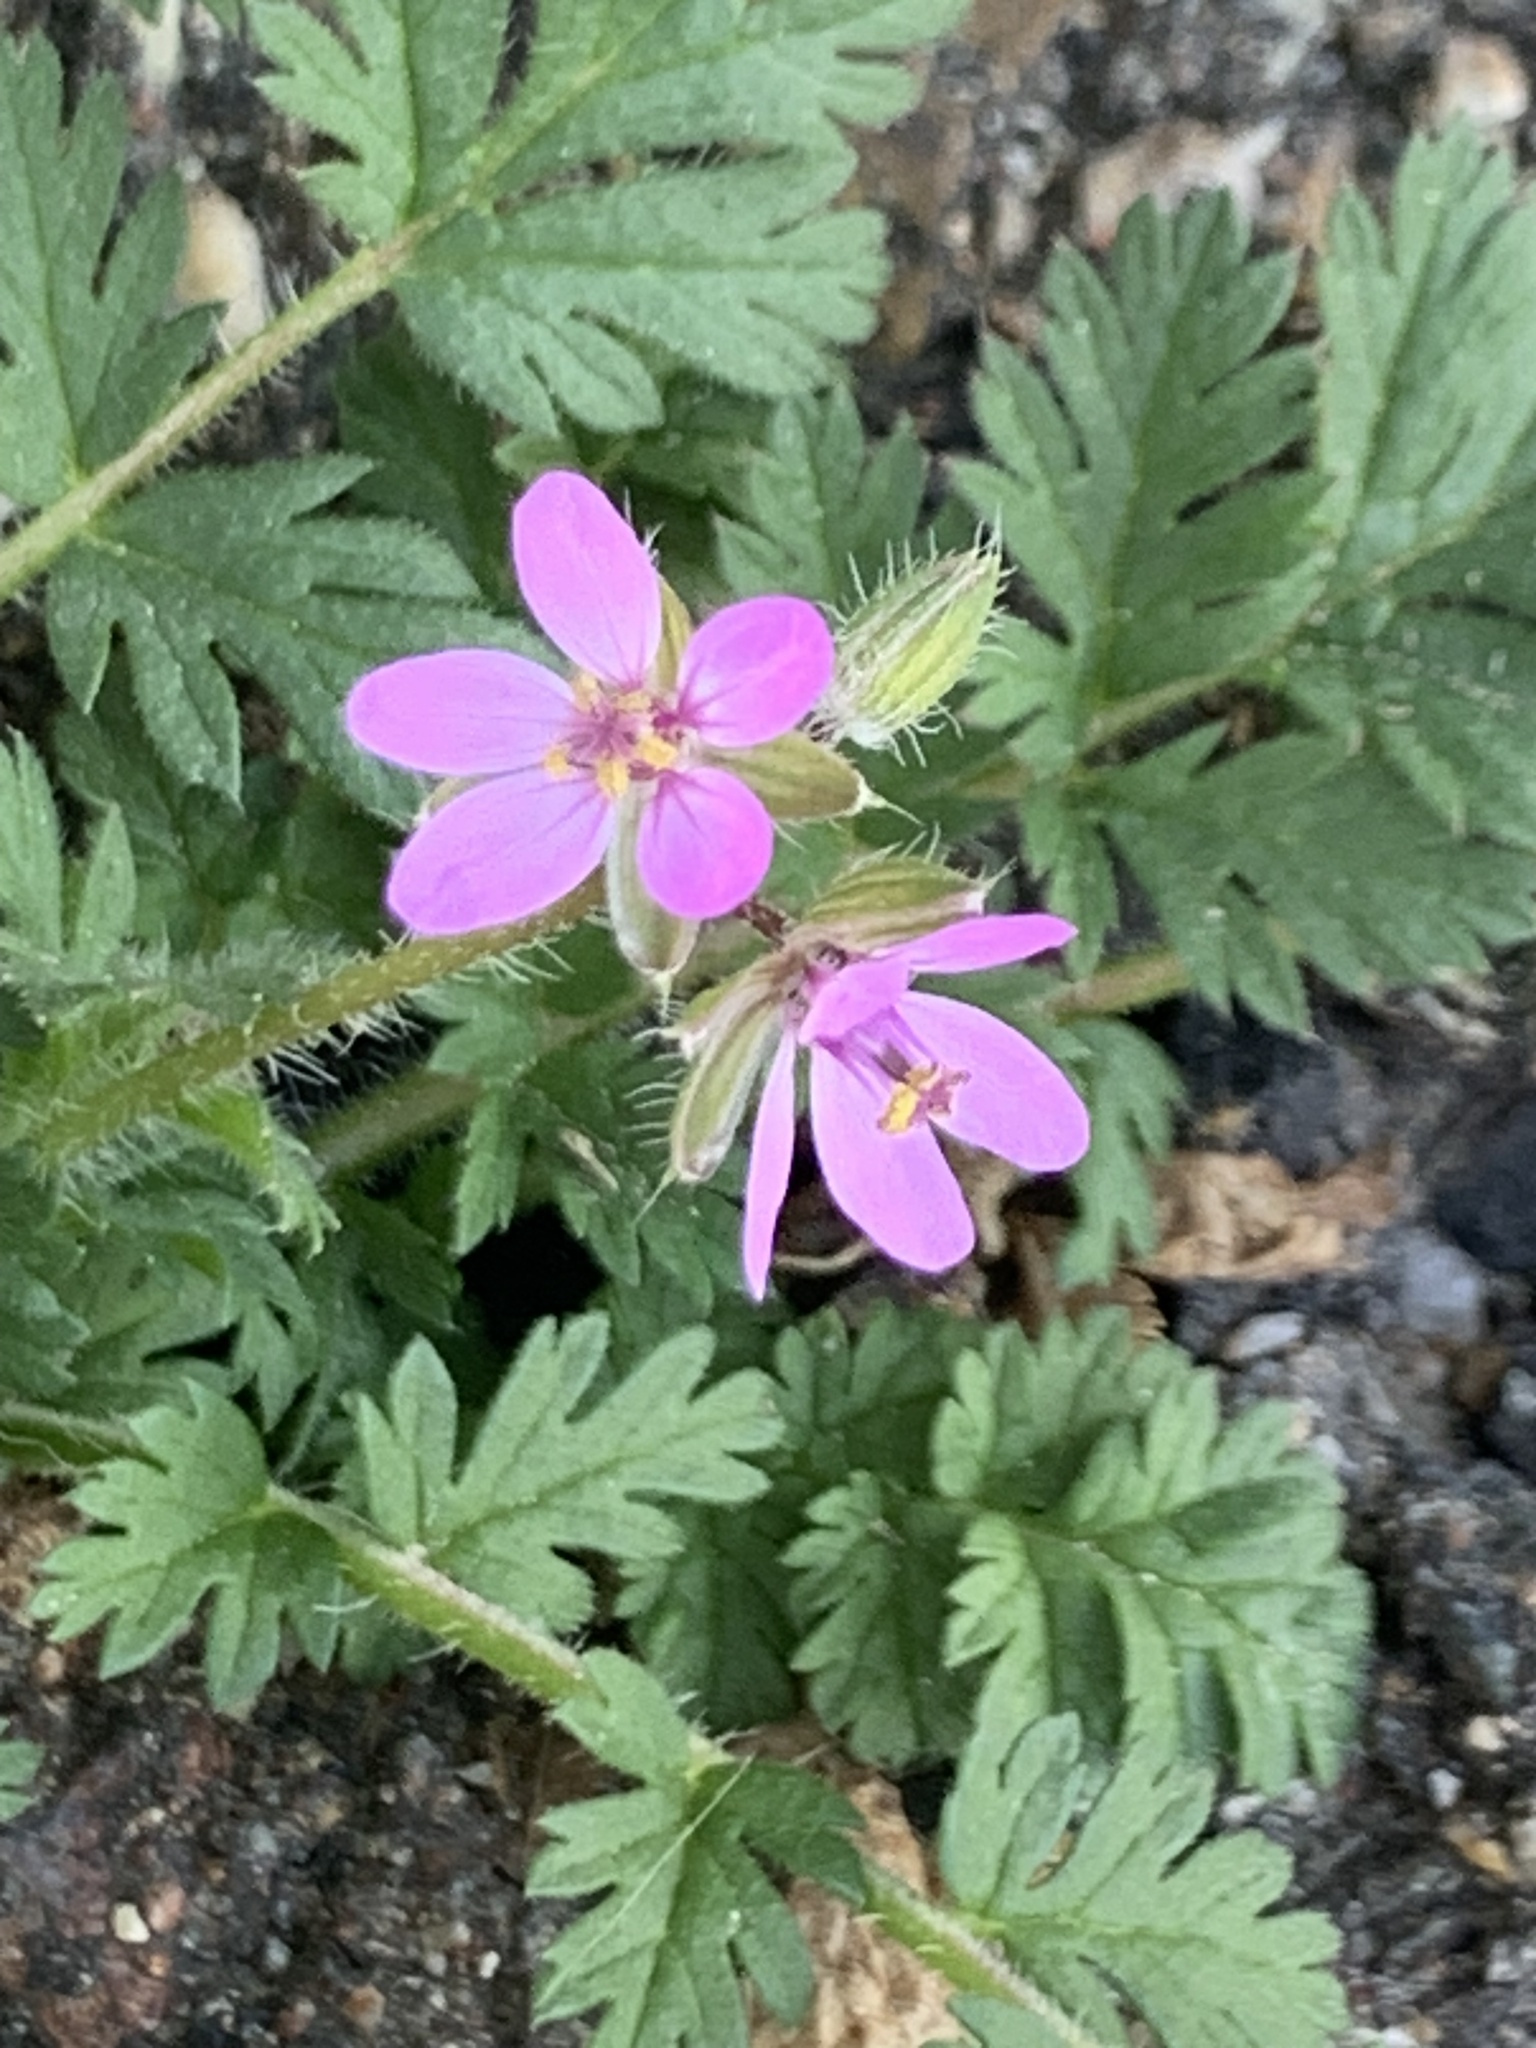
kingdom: Plantae
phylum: Tracheophyta
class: Magnoliopsida
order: Geraniales
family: Geraniaceae
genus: Erodium
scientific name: Erodium cicutarium
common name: Common stork's-bill
